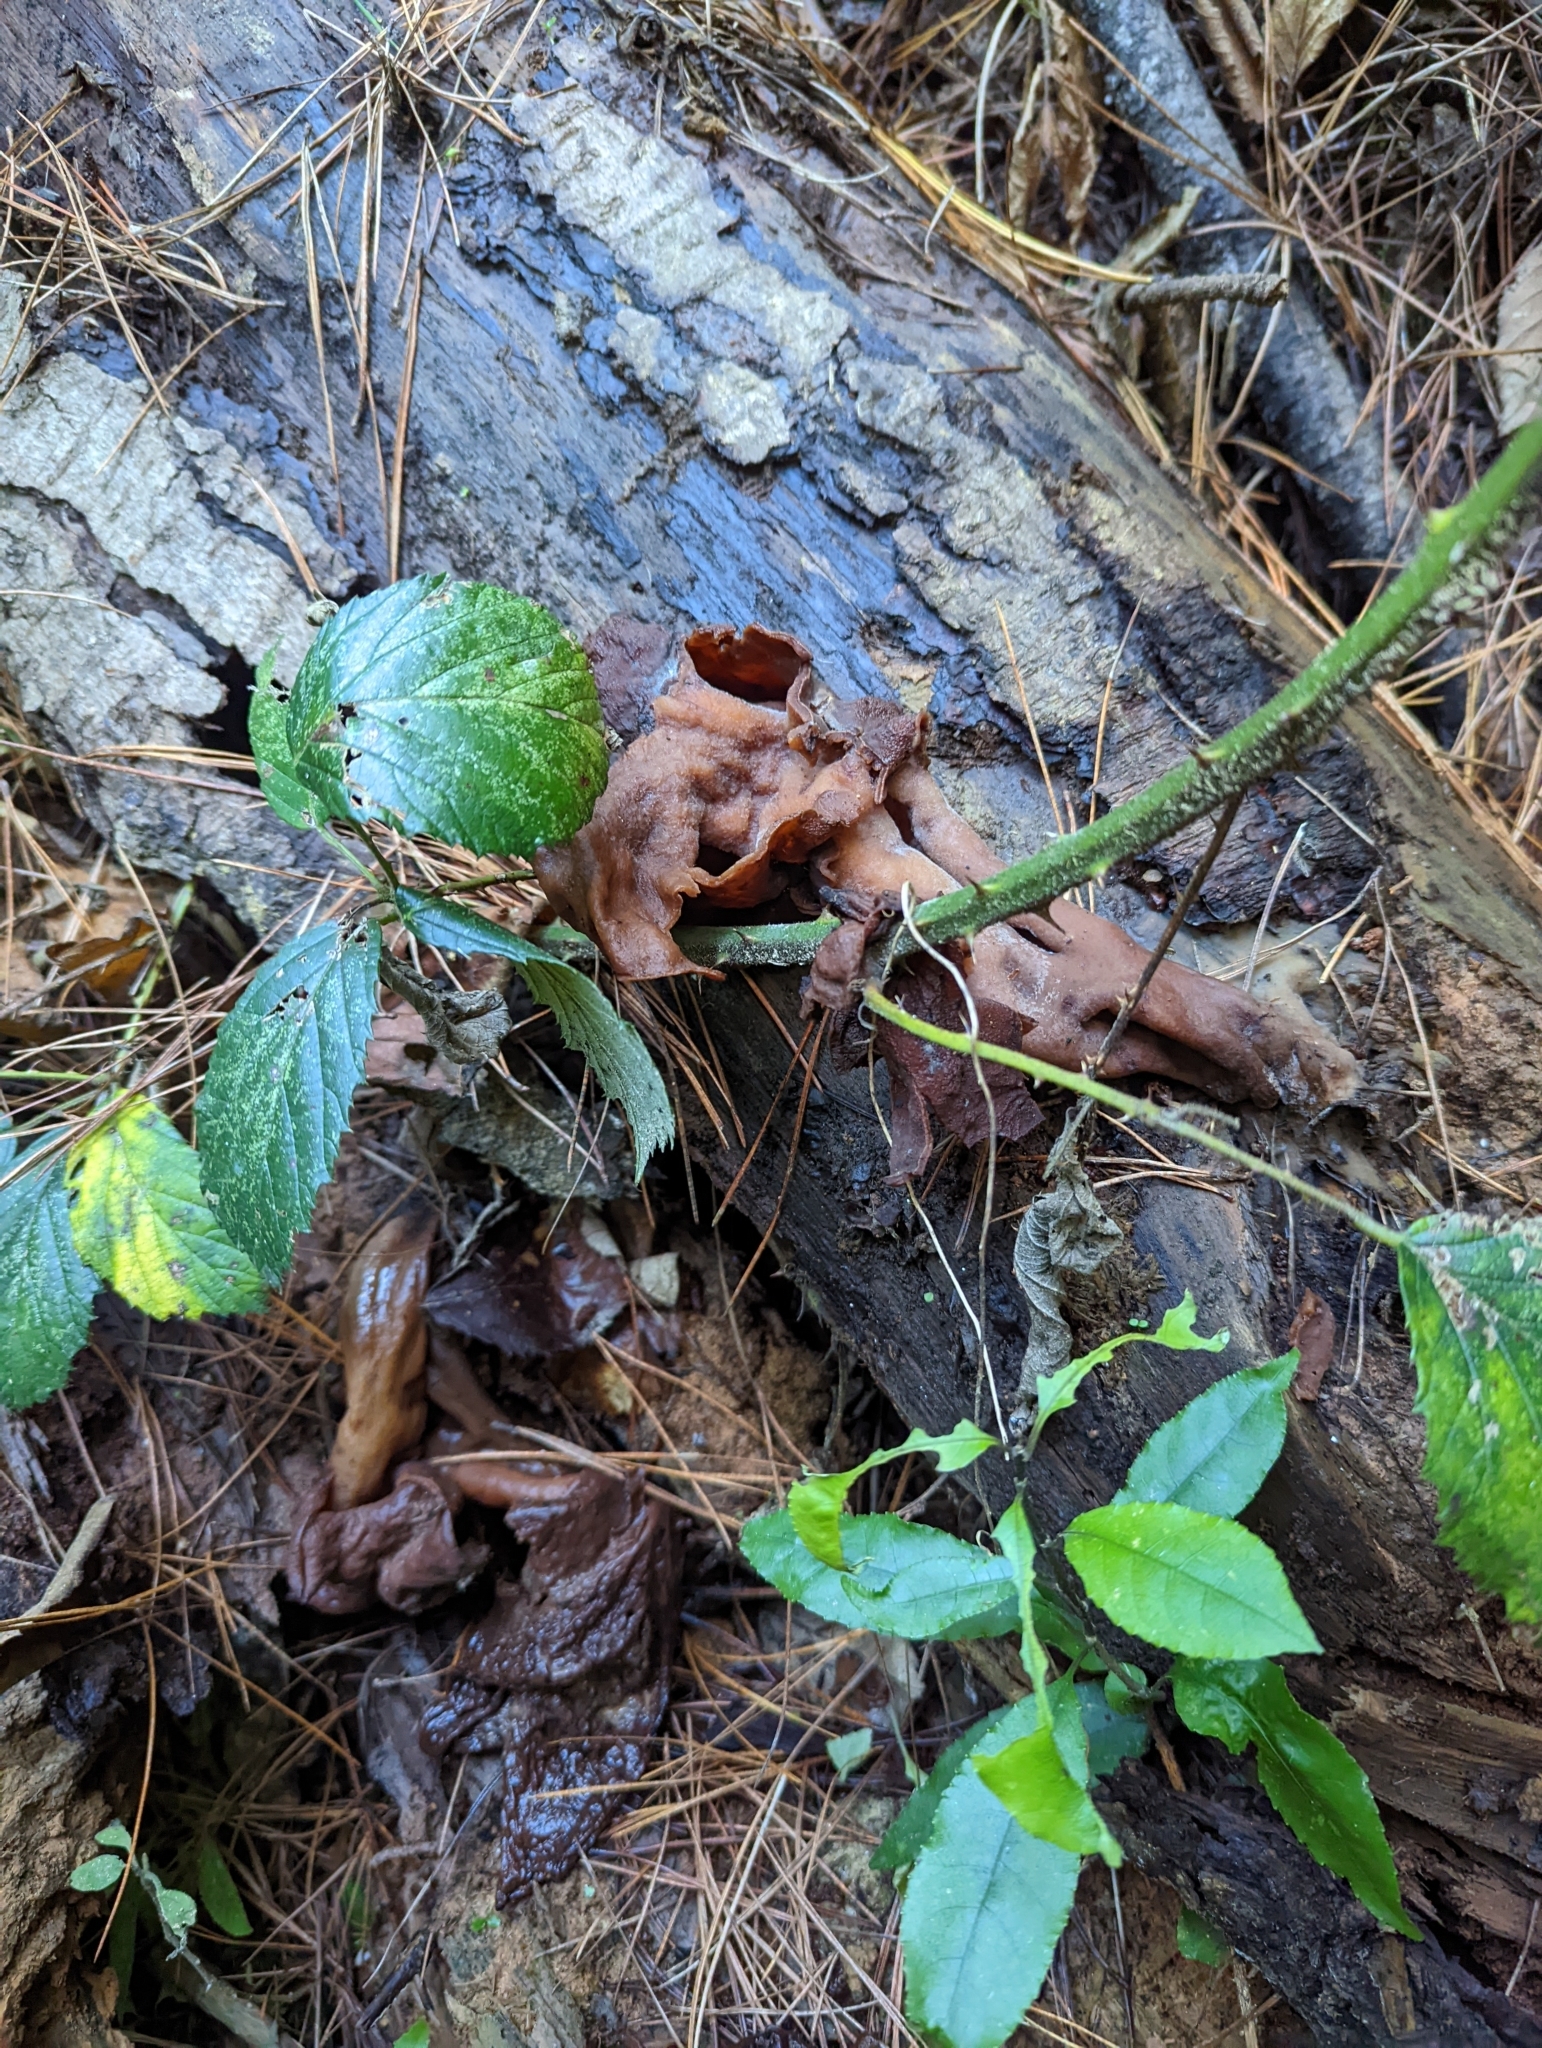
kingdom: Fungi
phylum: Ascomycota
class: Pezizomycetes
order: Pezizales
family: Discinaceae
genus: Gyromitra
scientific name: Gyromitra infula
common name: Pouched false morel
